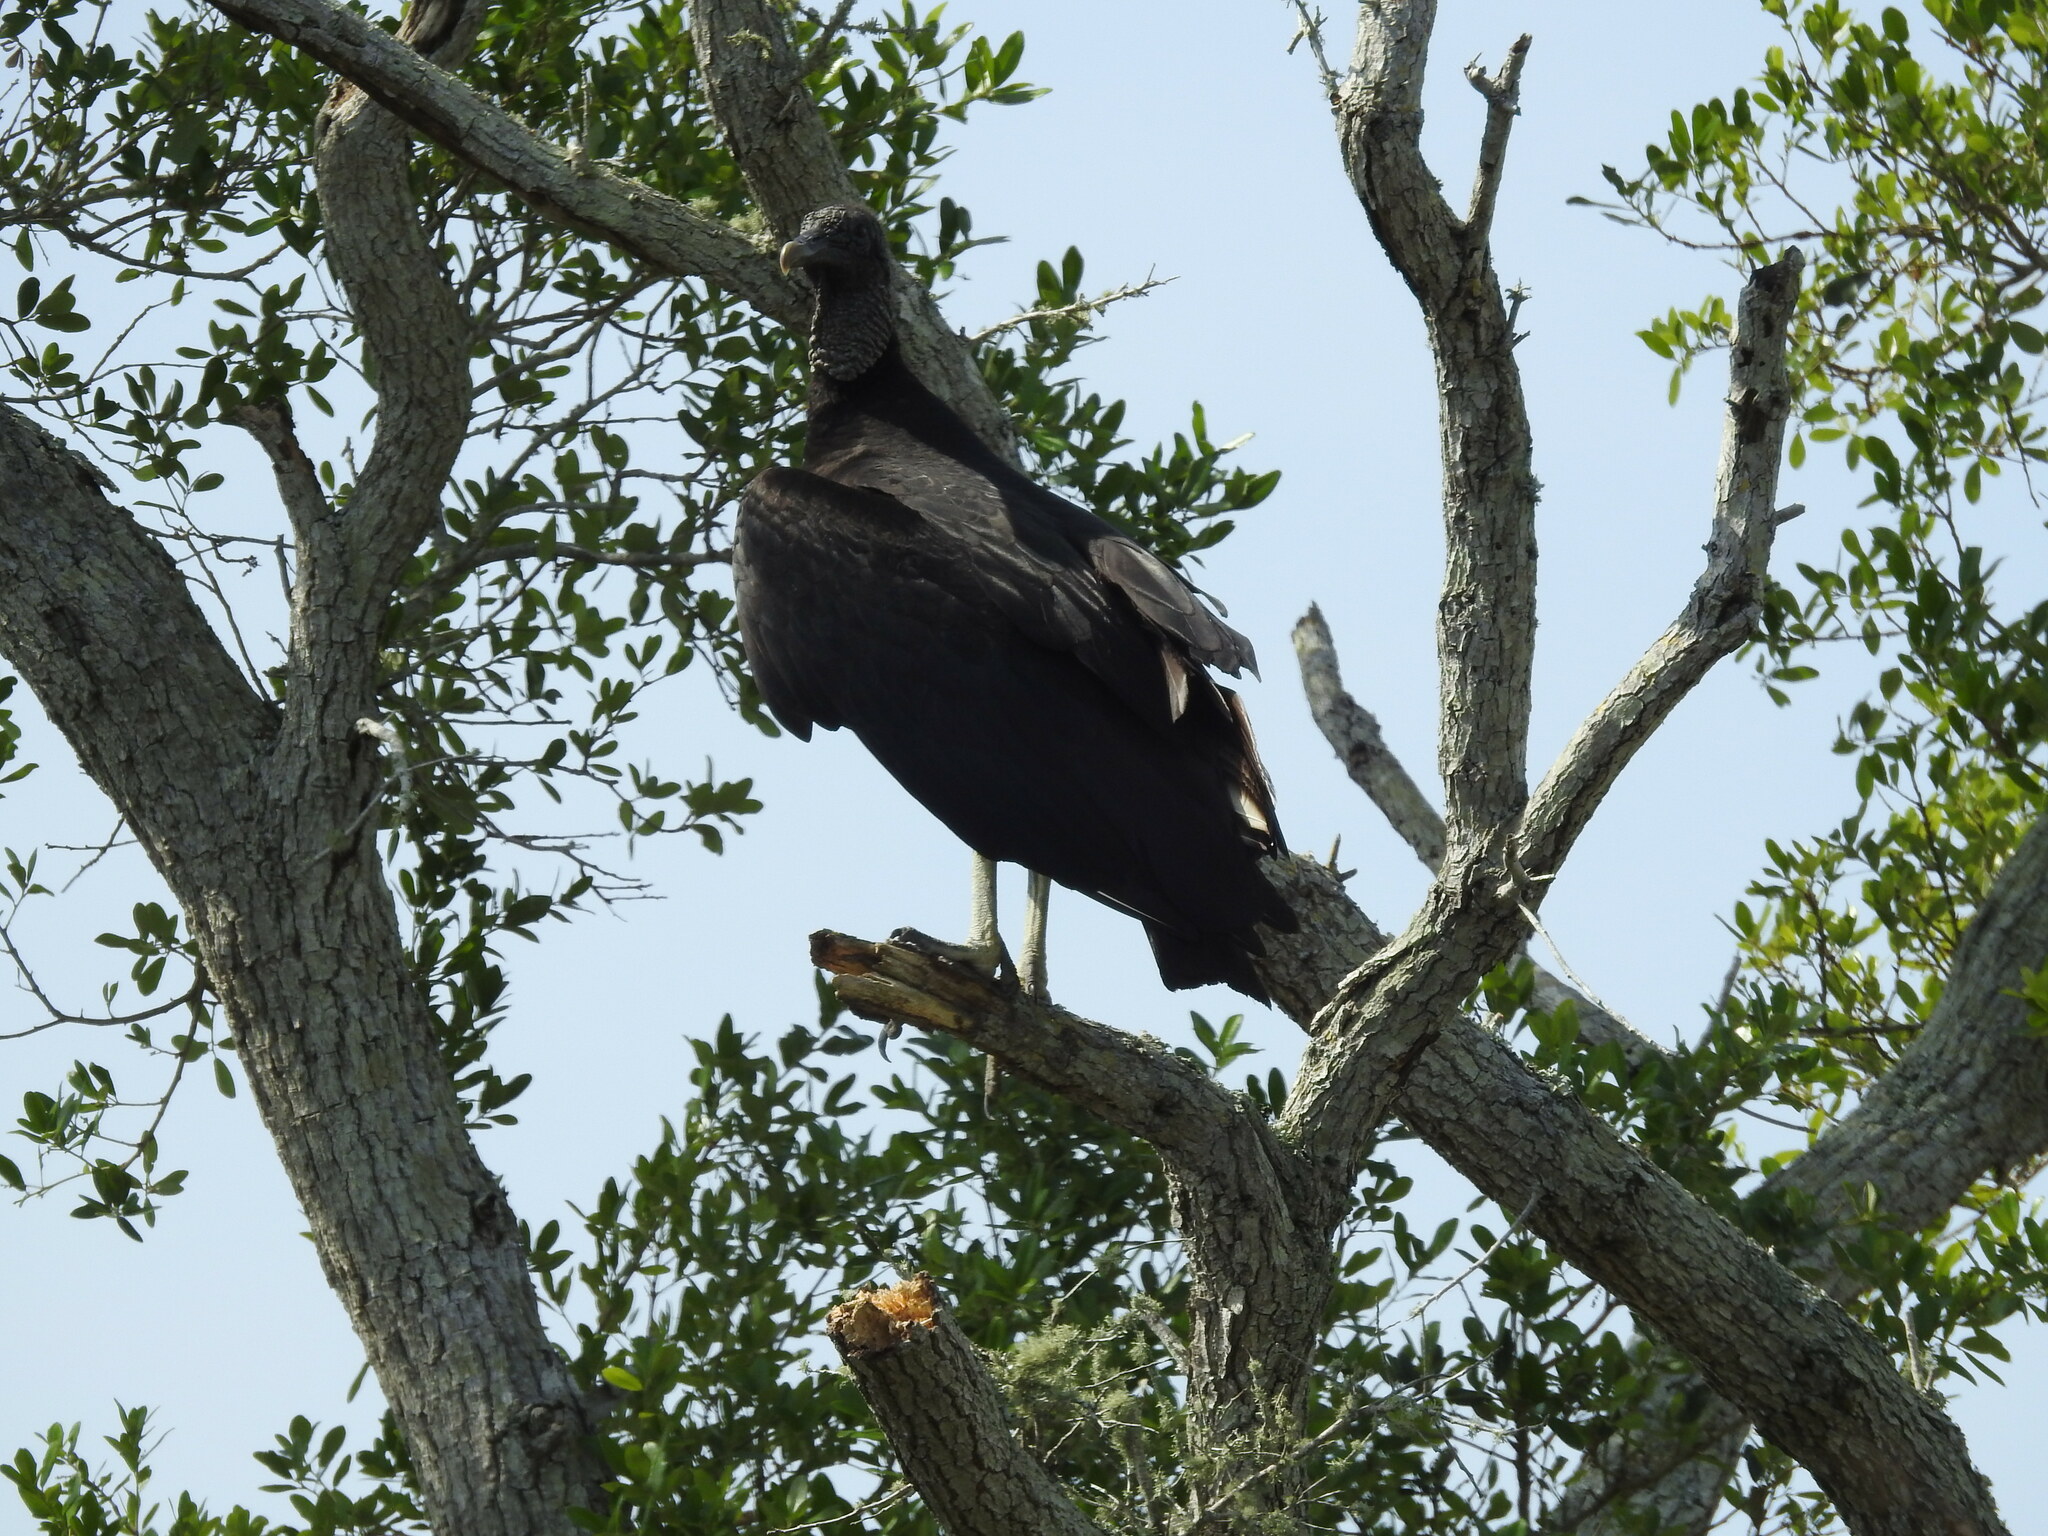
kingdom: Animalia
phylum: Chordata
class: Aves
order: Accipitriformes
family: Cathartidae
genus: Coragyps
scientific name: Coragyps atratus
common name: Black vulture
